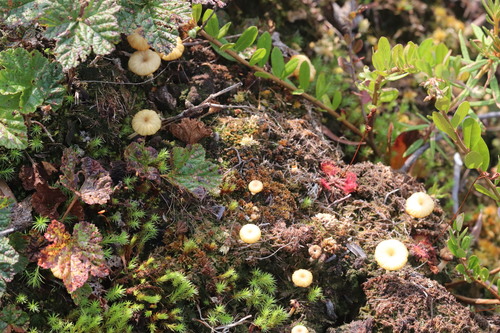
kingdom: Fungi
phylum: Basidiomycota
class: Agaricomycetes
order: Agaricales
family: Hygrophoraceae
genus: Lichenomphalia
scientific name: Lichenomphalia umbellifera
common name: Heath navel
